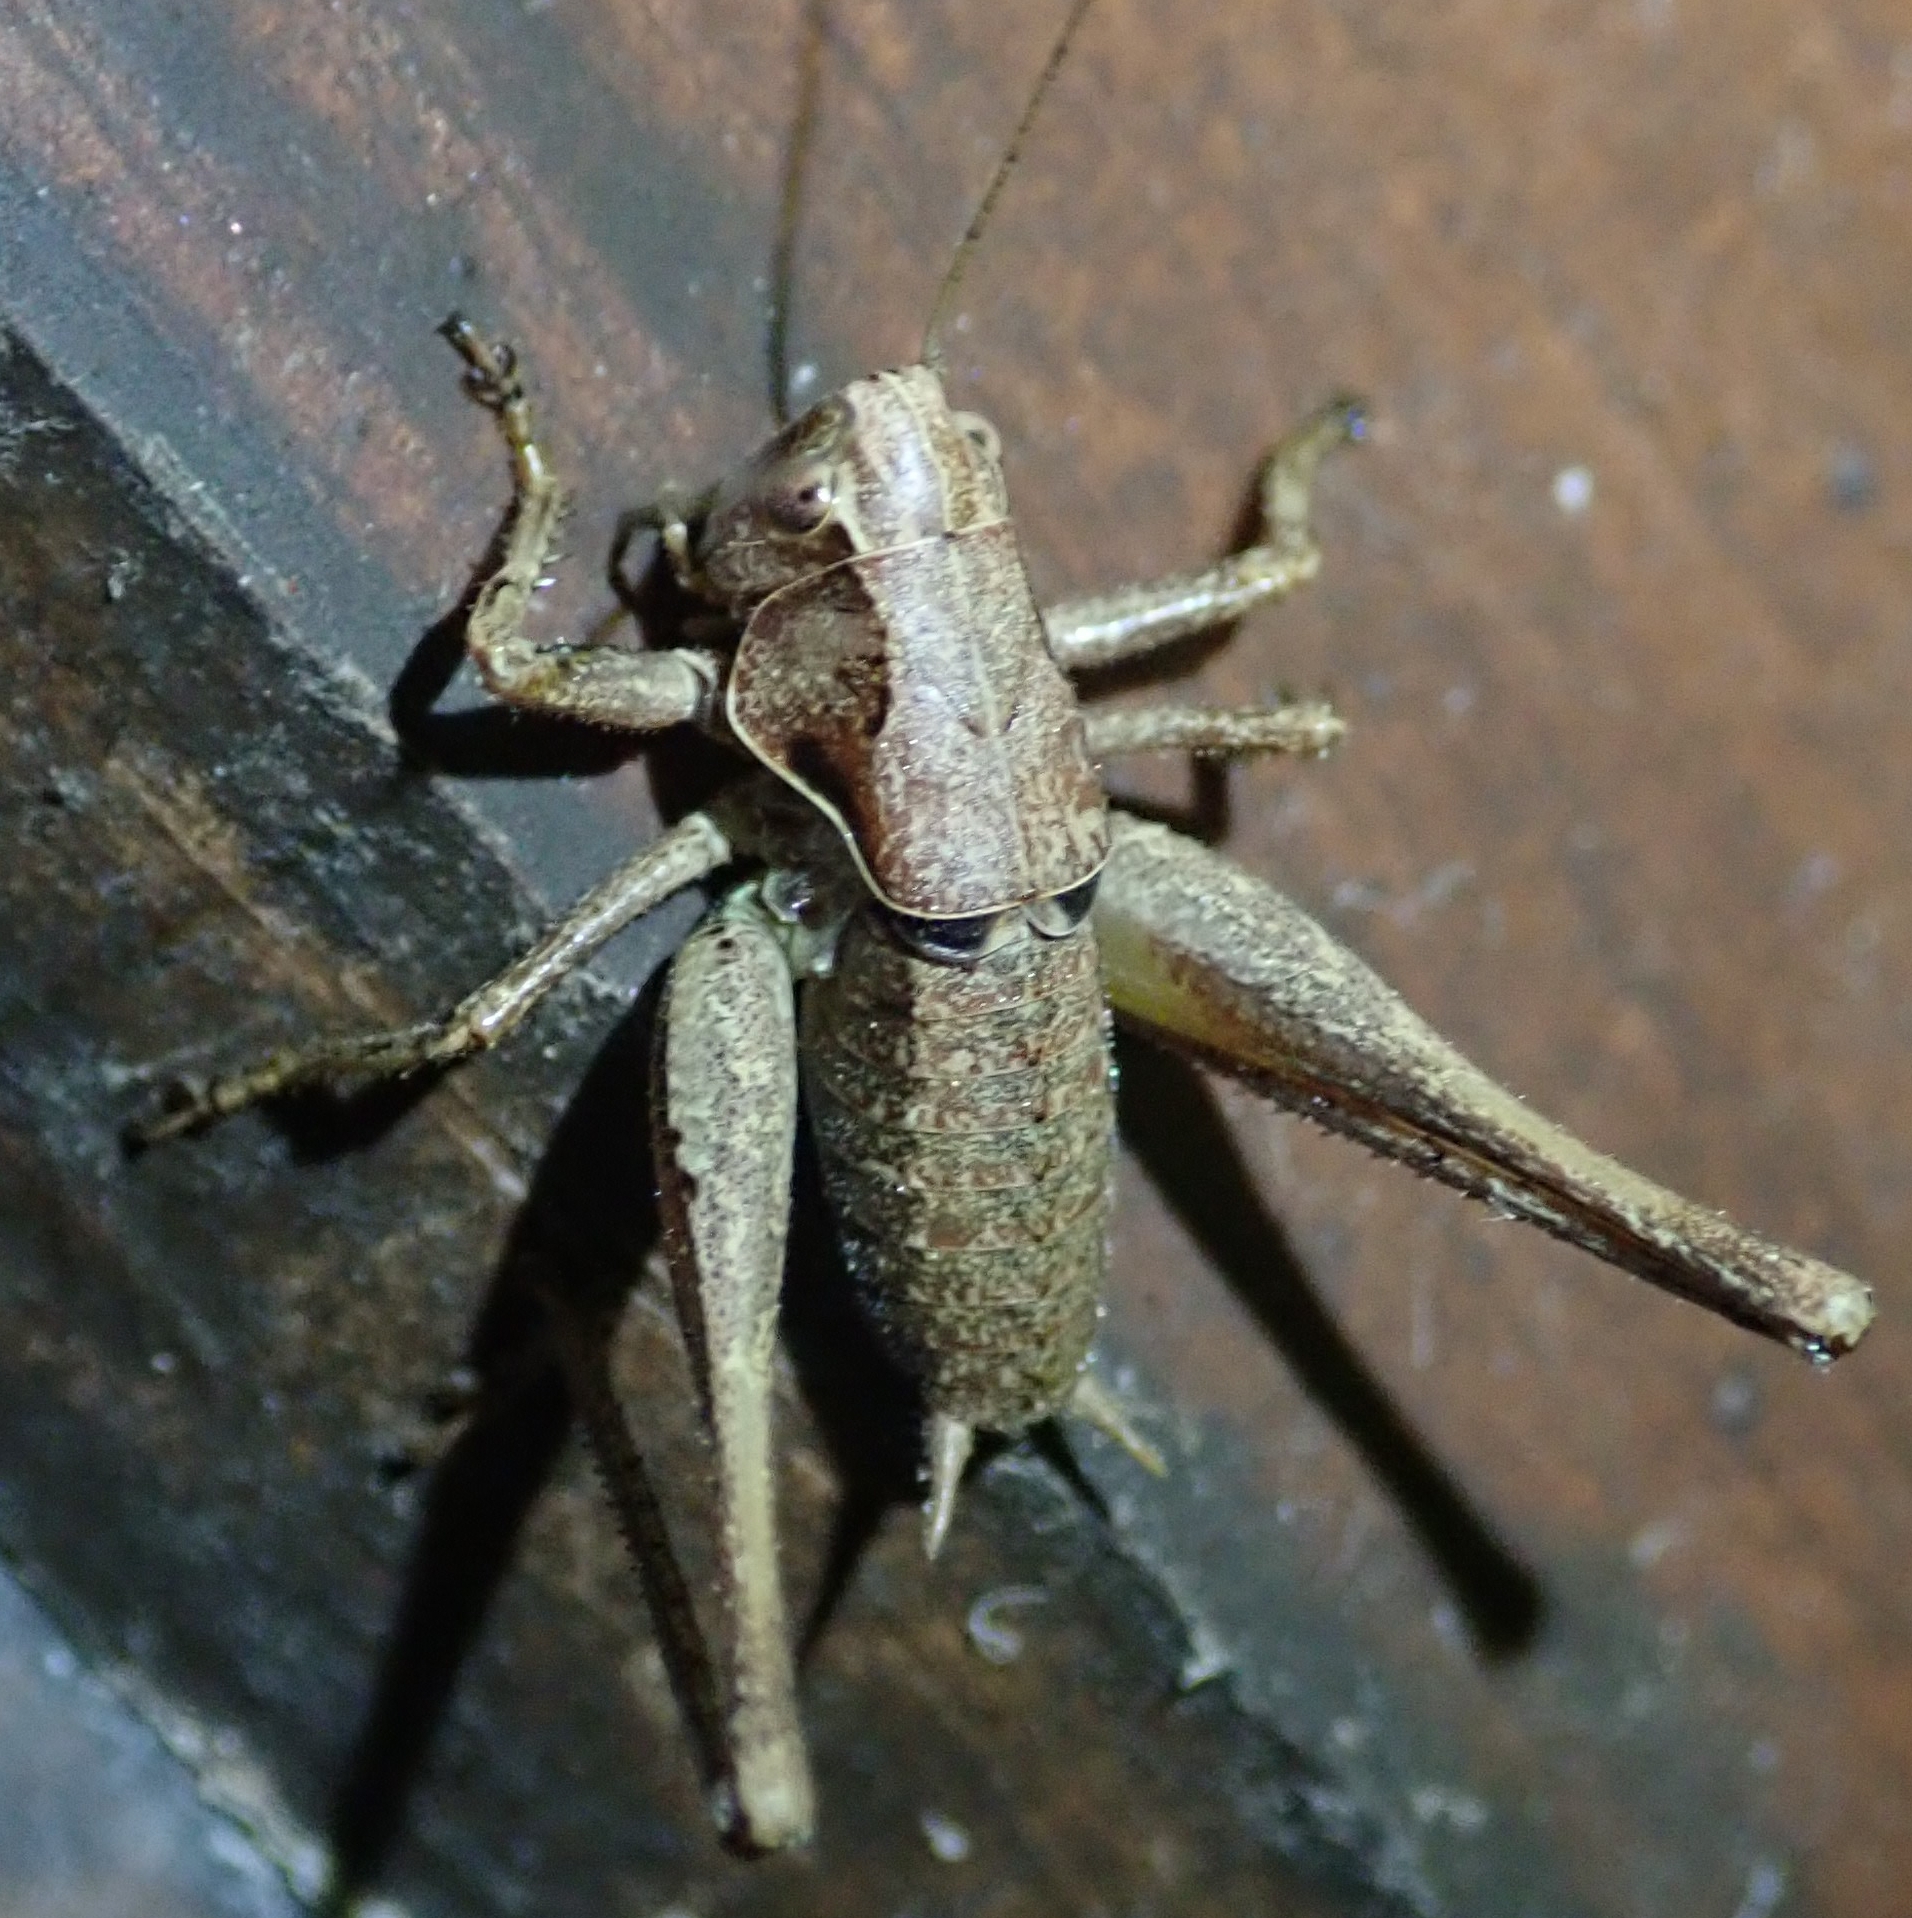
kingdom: Animalia
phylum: Arthropoda
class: Insecta
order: Orthoptera
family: Tettigoniidae
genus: Pholidoptera
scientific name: Pholidoptera griseoaptera
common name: Dark bush-cricket
